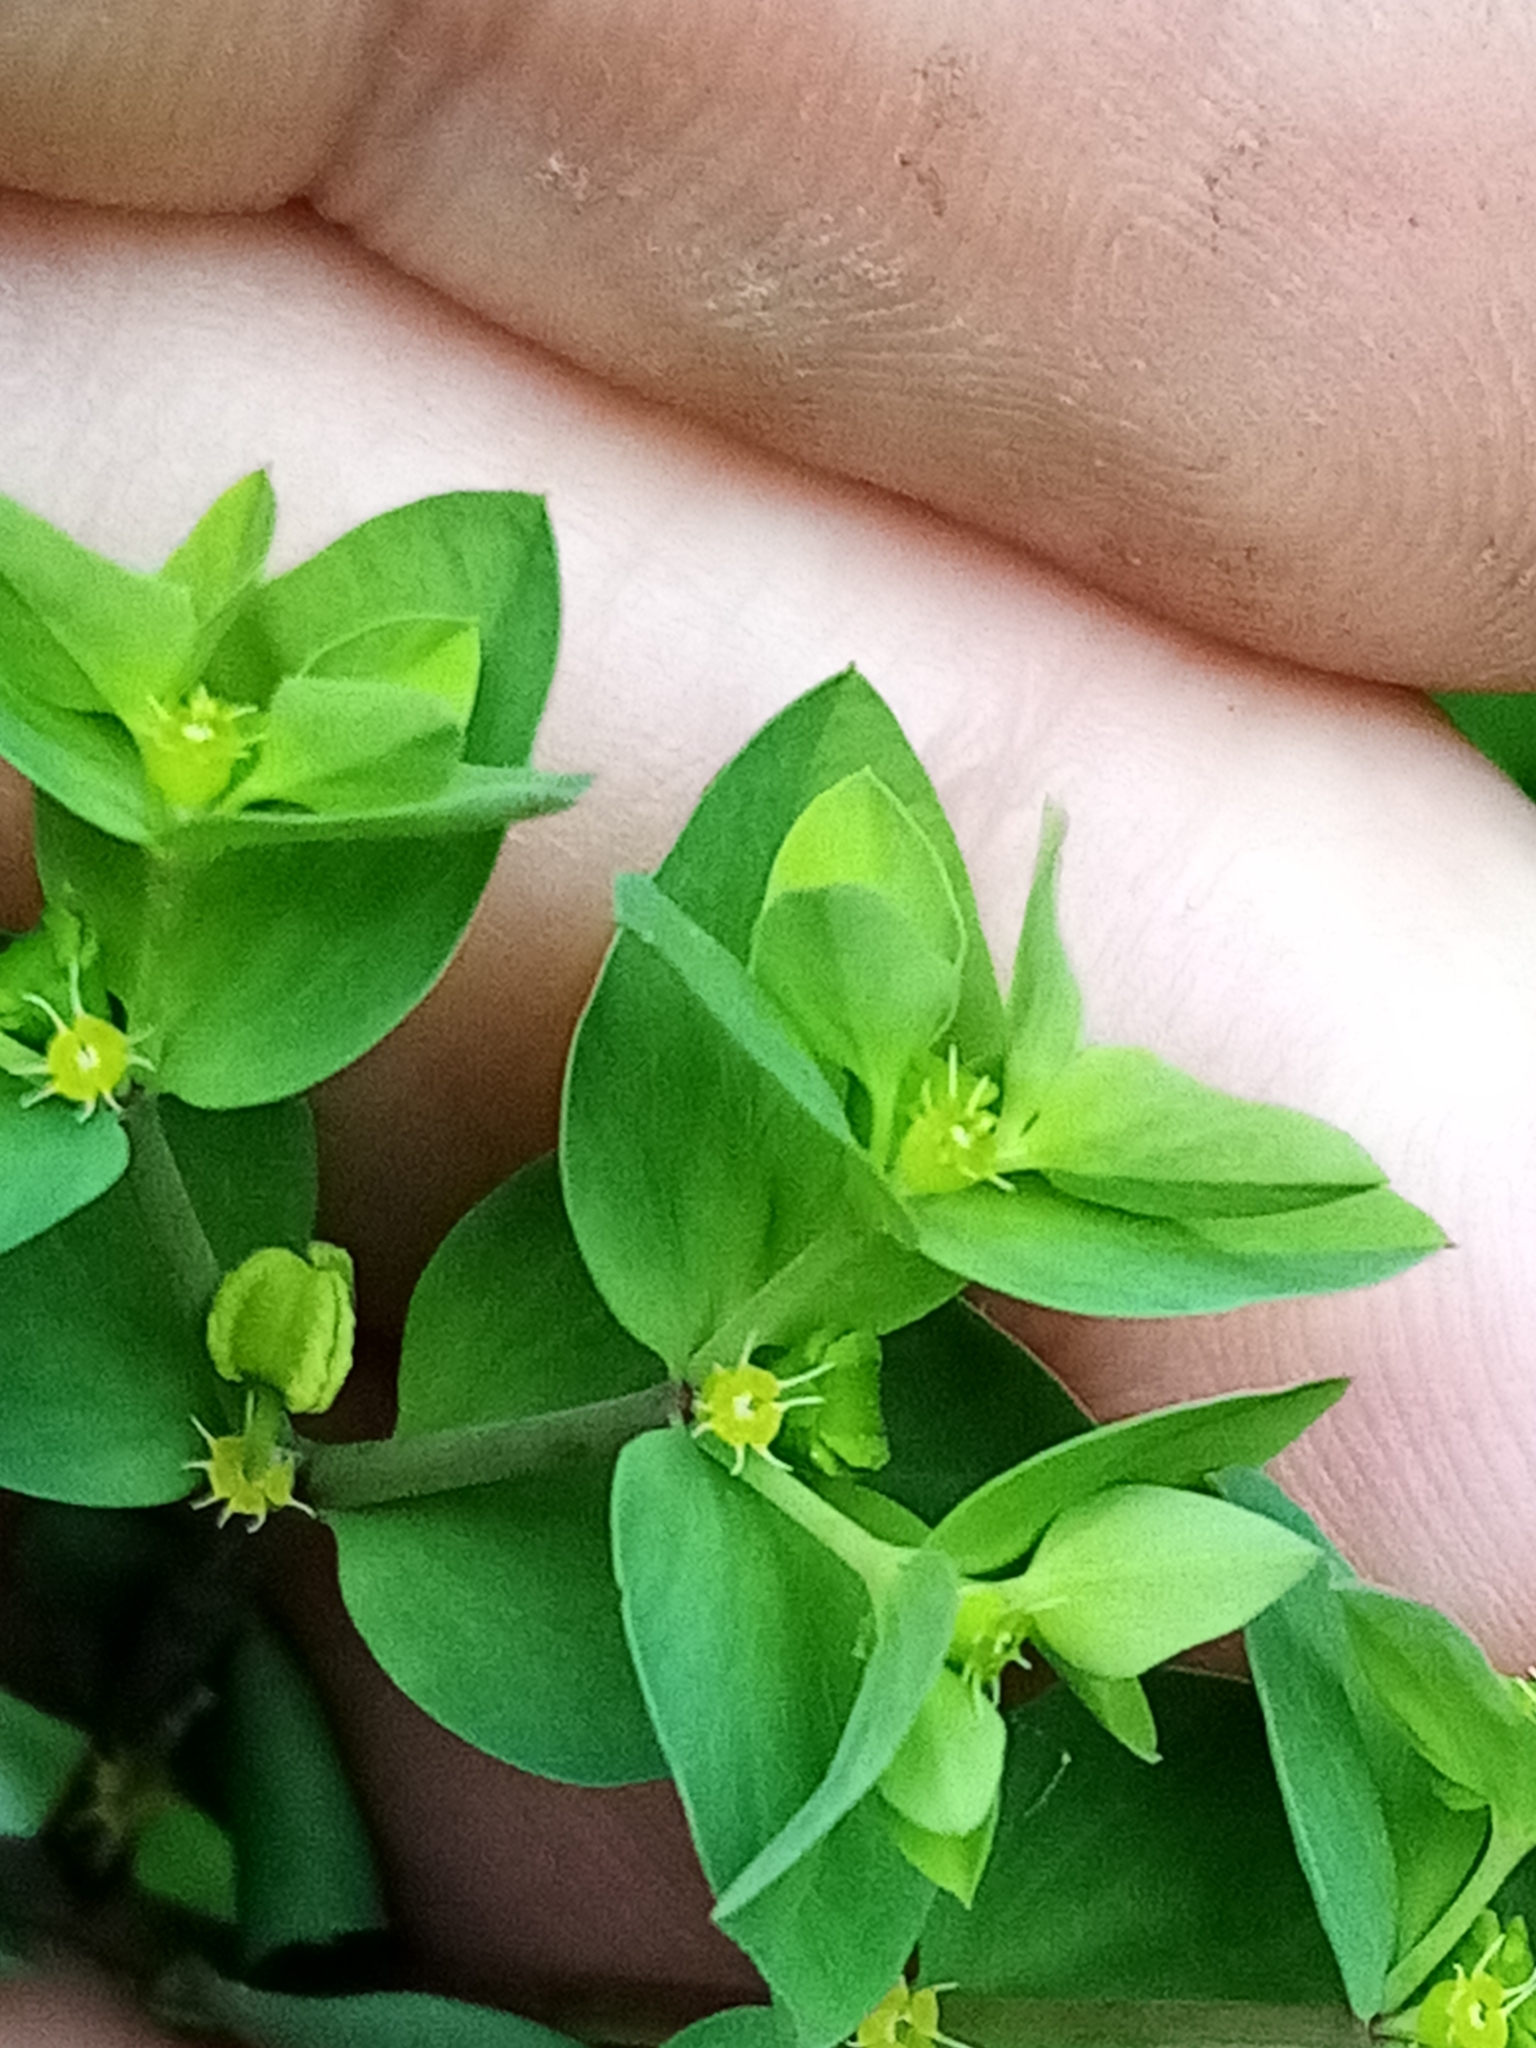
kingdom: Plantae
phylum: Tracheophyta
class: Magnoliopsida
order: Malpighiales
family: Euphorbiaceae
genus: Euphorbia
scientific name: Euphorbia peplus
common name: Petty spurge
